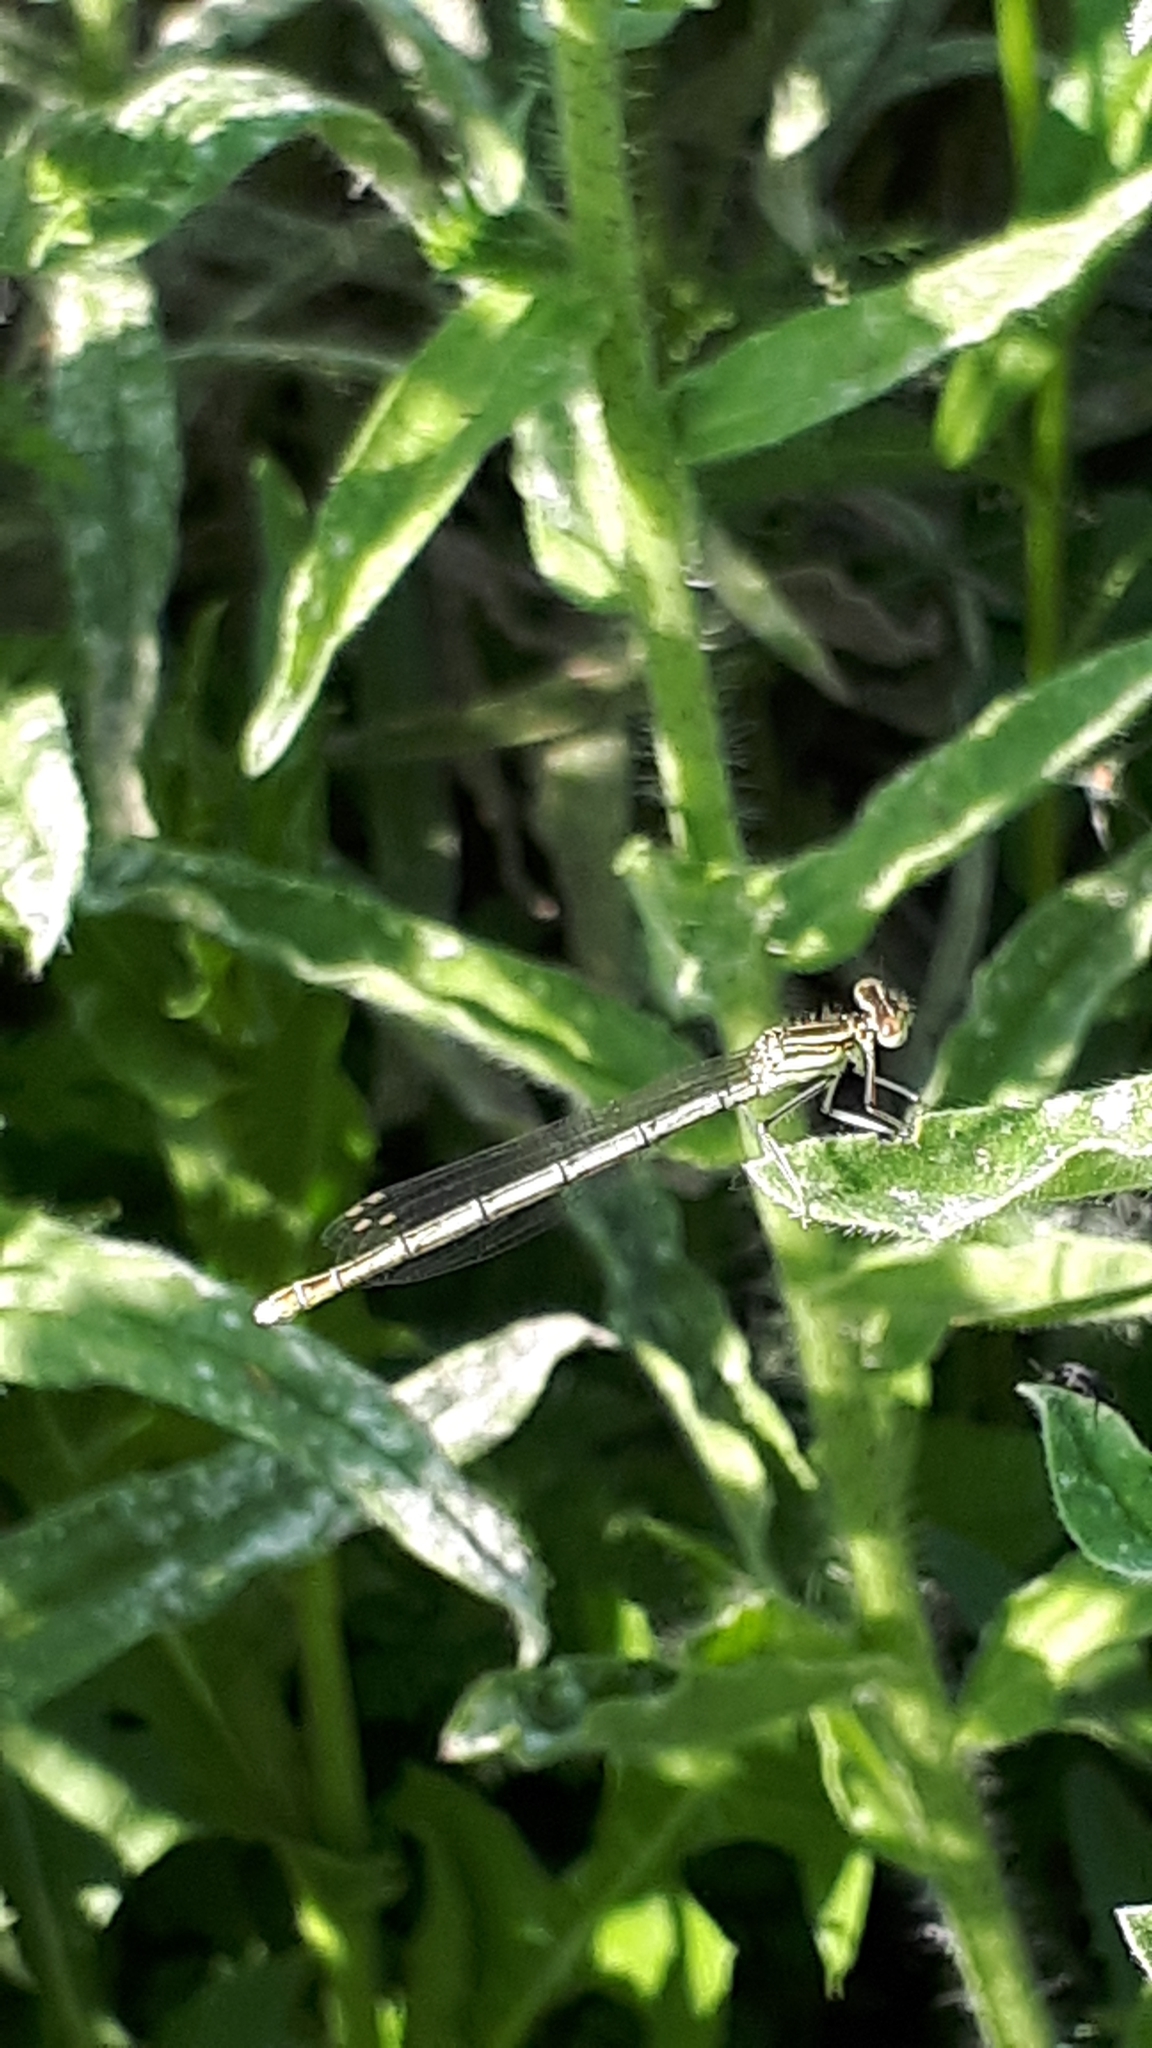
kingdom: Animalia
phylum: Arthropoda
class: Insecta
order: Odonata
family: Platycnemididae
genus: Platycnemis
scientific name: Platycnemis pennipes
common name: White-legged damselfly
